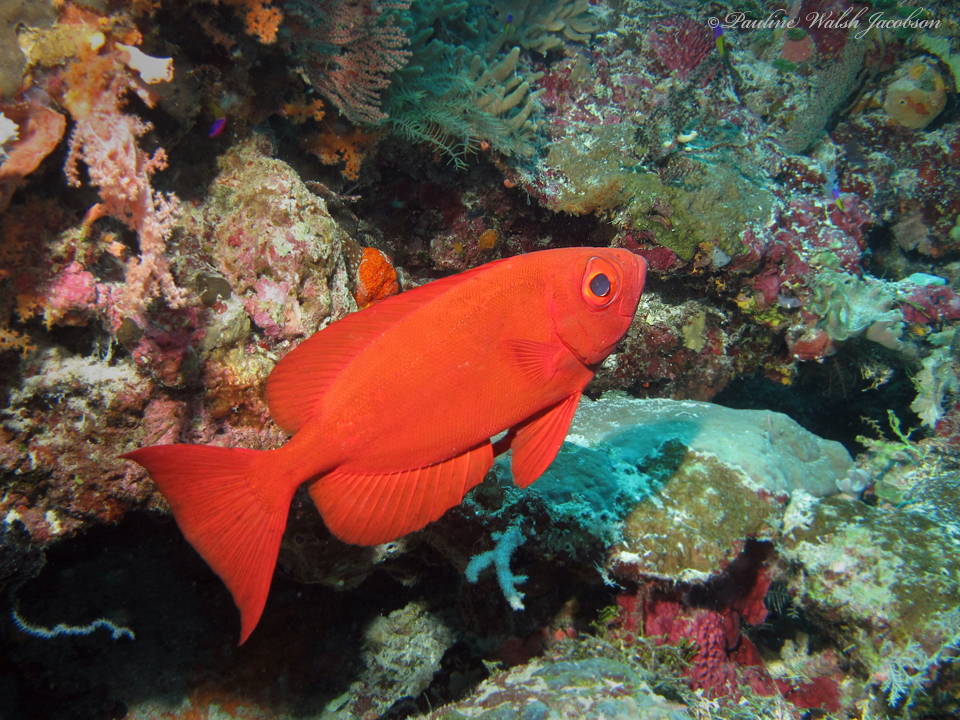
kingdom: Animalia
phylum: Chordata
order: Perciformes
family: Priacanthidae
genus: Priacanthus
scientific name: Priacanthus hamrur
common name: Moontail bullseye
